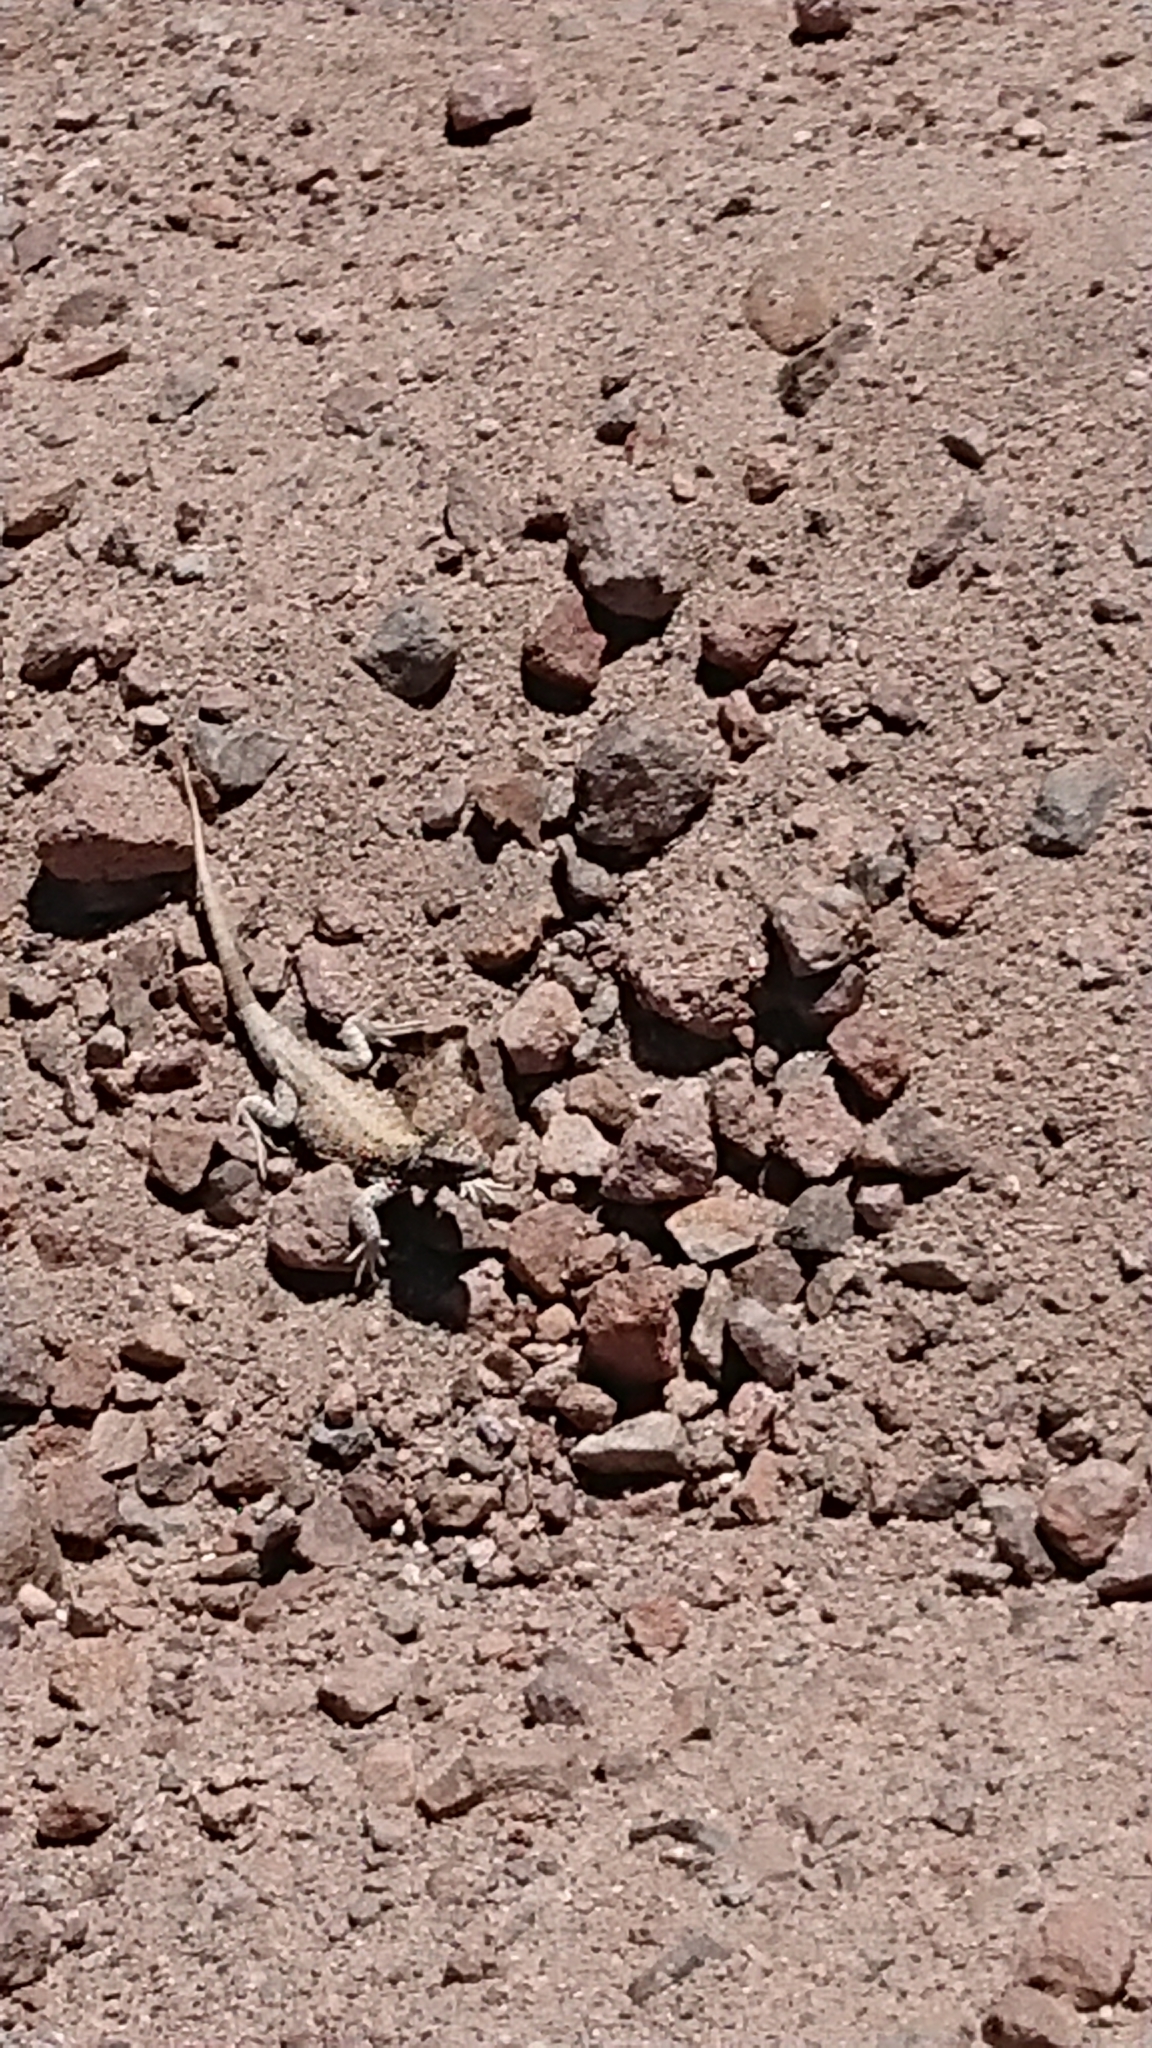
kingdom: Animalia
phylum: Chordata
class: Squamata
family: Liolaemidae
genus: Liolaemus
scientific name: Liolaemus rosenmanni
